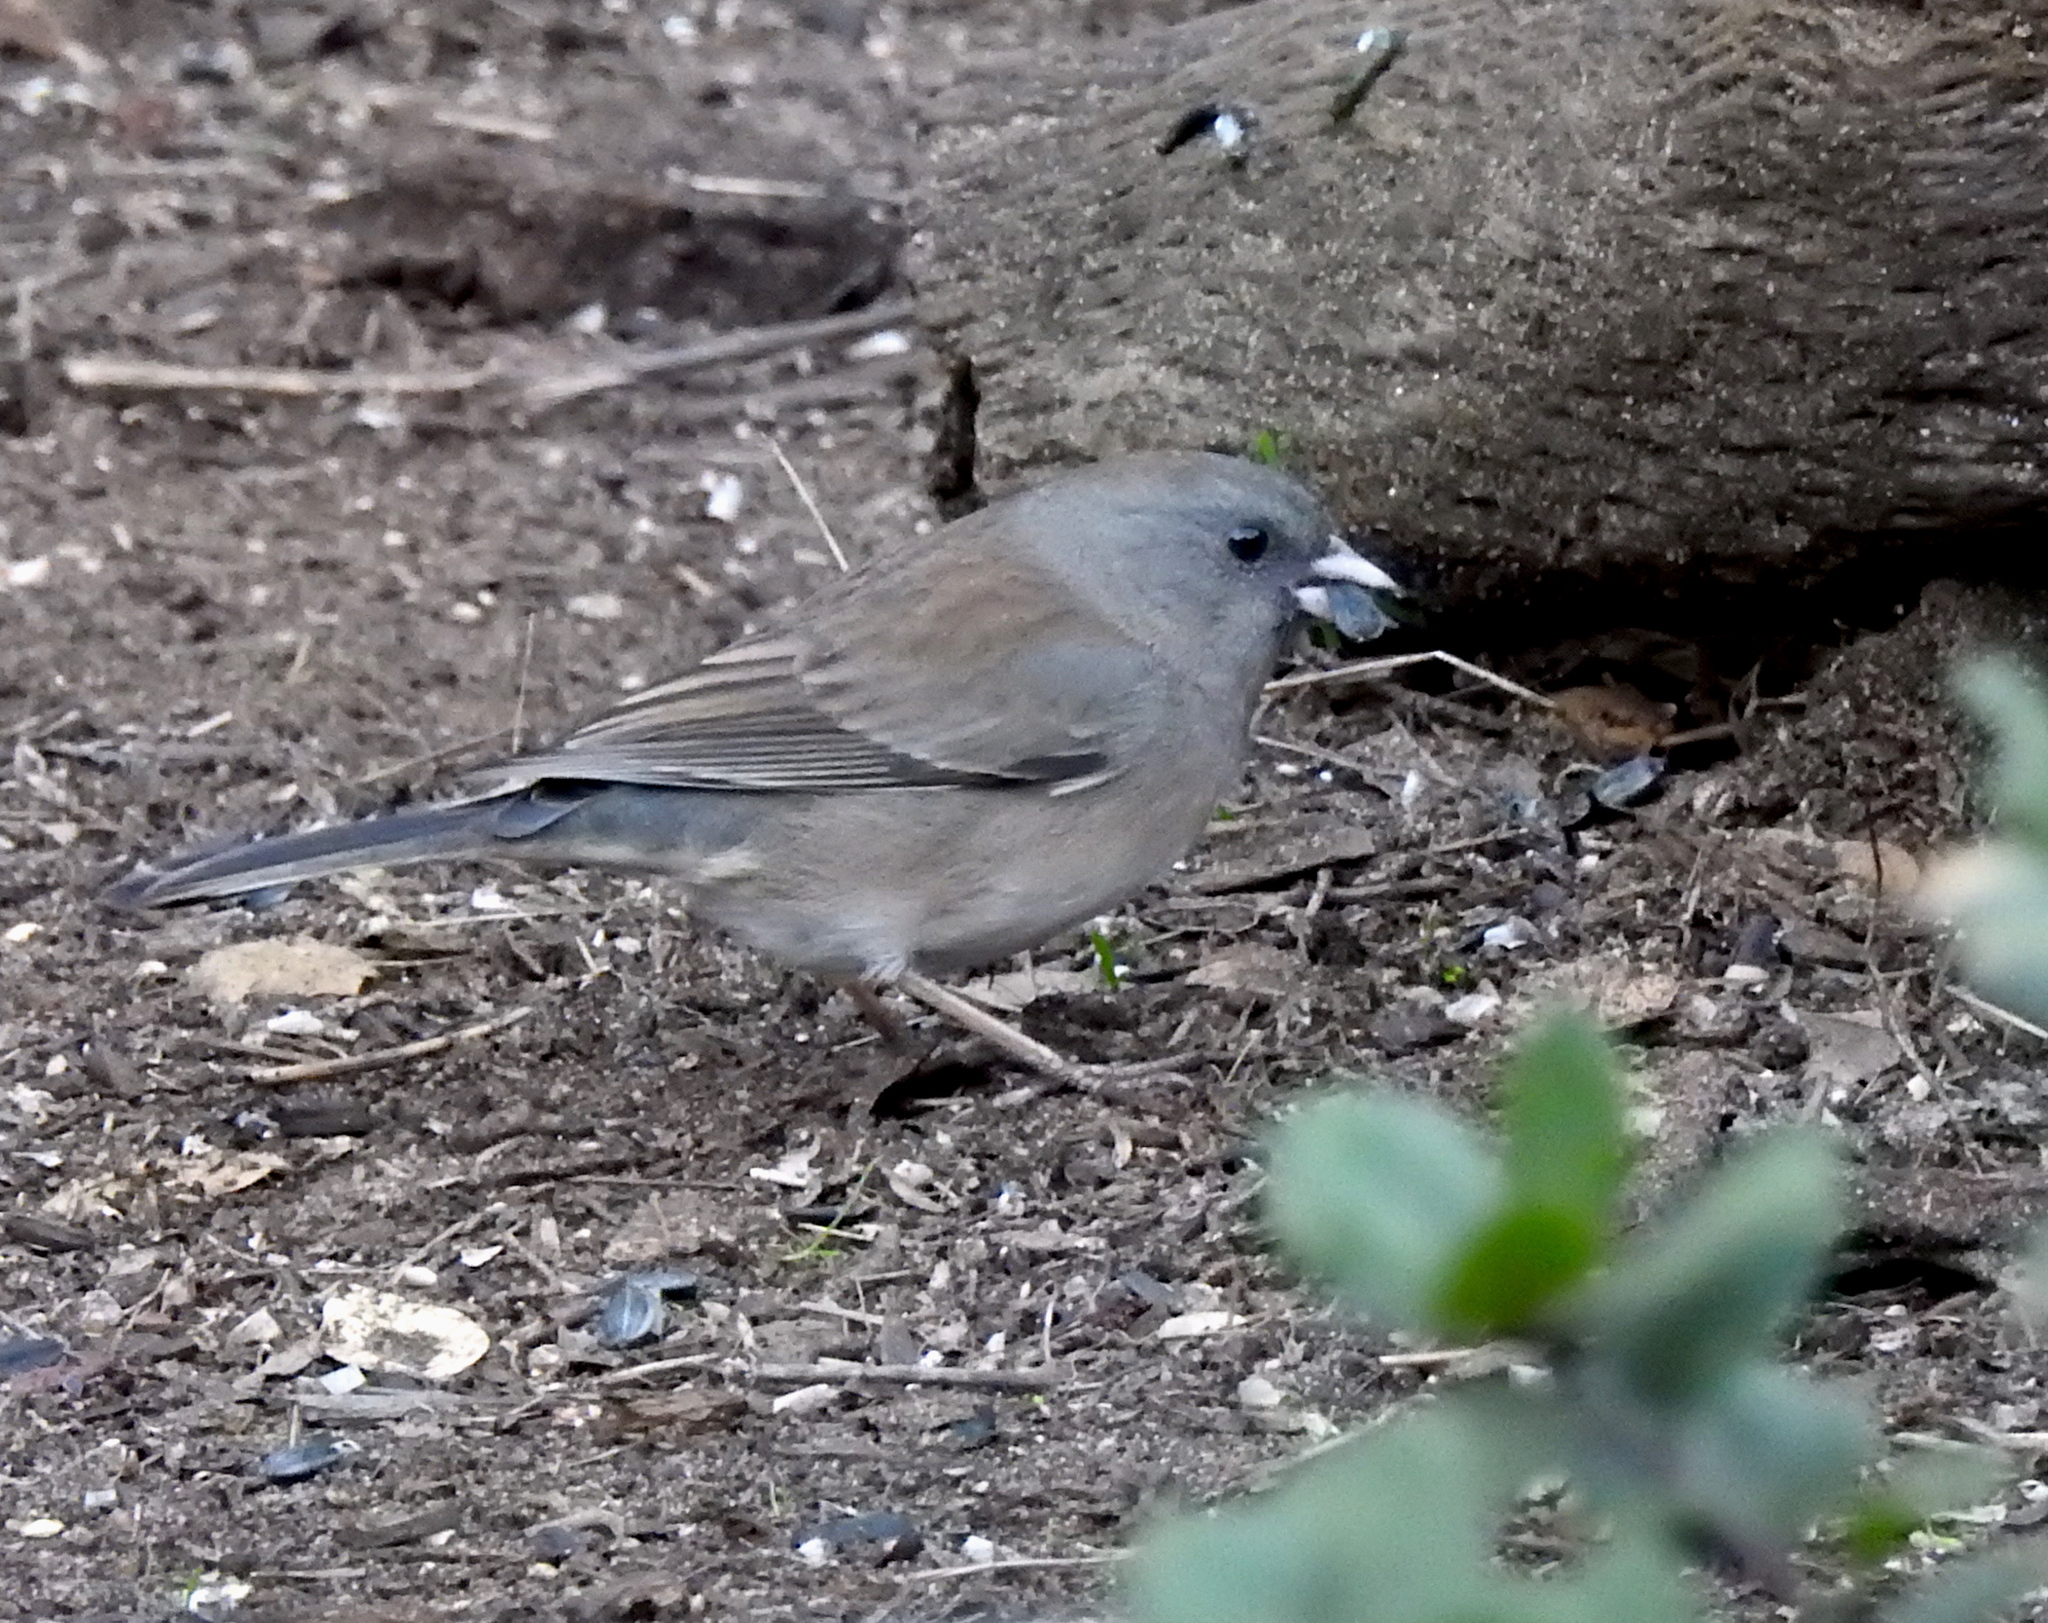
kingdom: Animalia
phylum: Chordata
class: Aves
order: Passeriformes
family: Passerellidae
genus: Junco
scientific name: Junco hyemalis
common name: Dark-eyed junco
